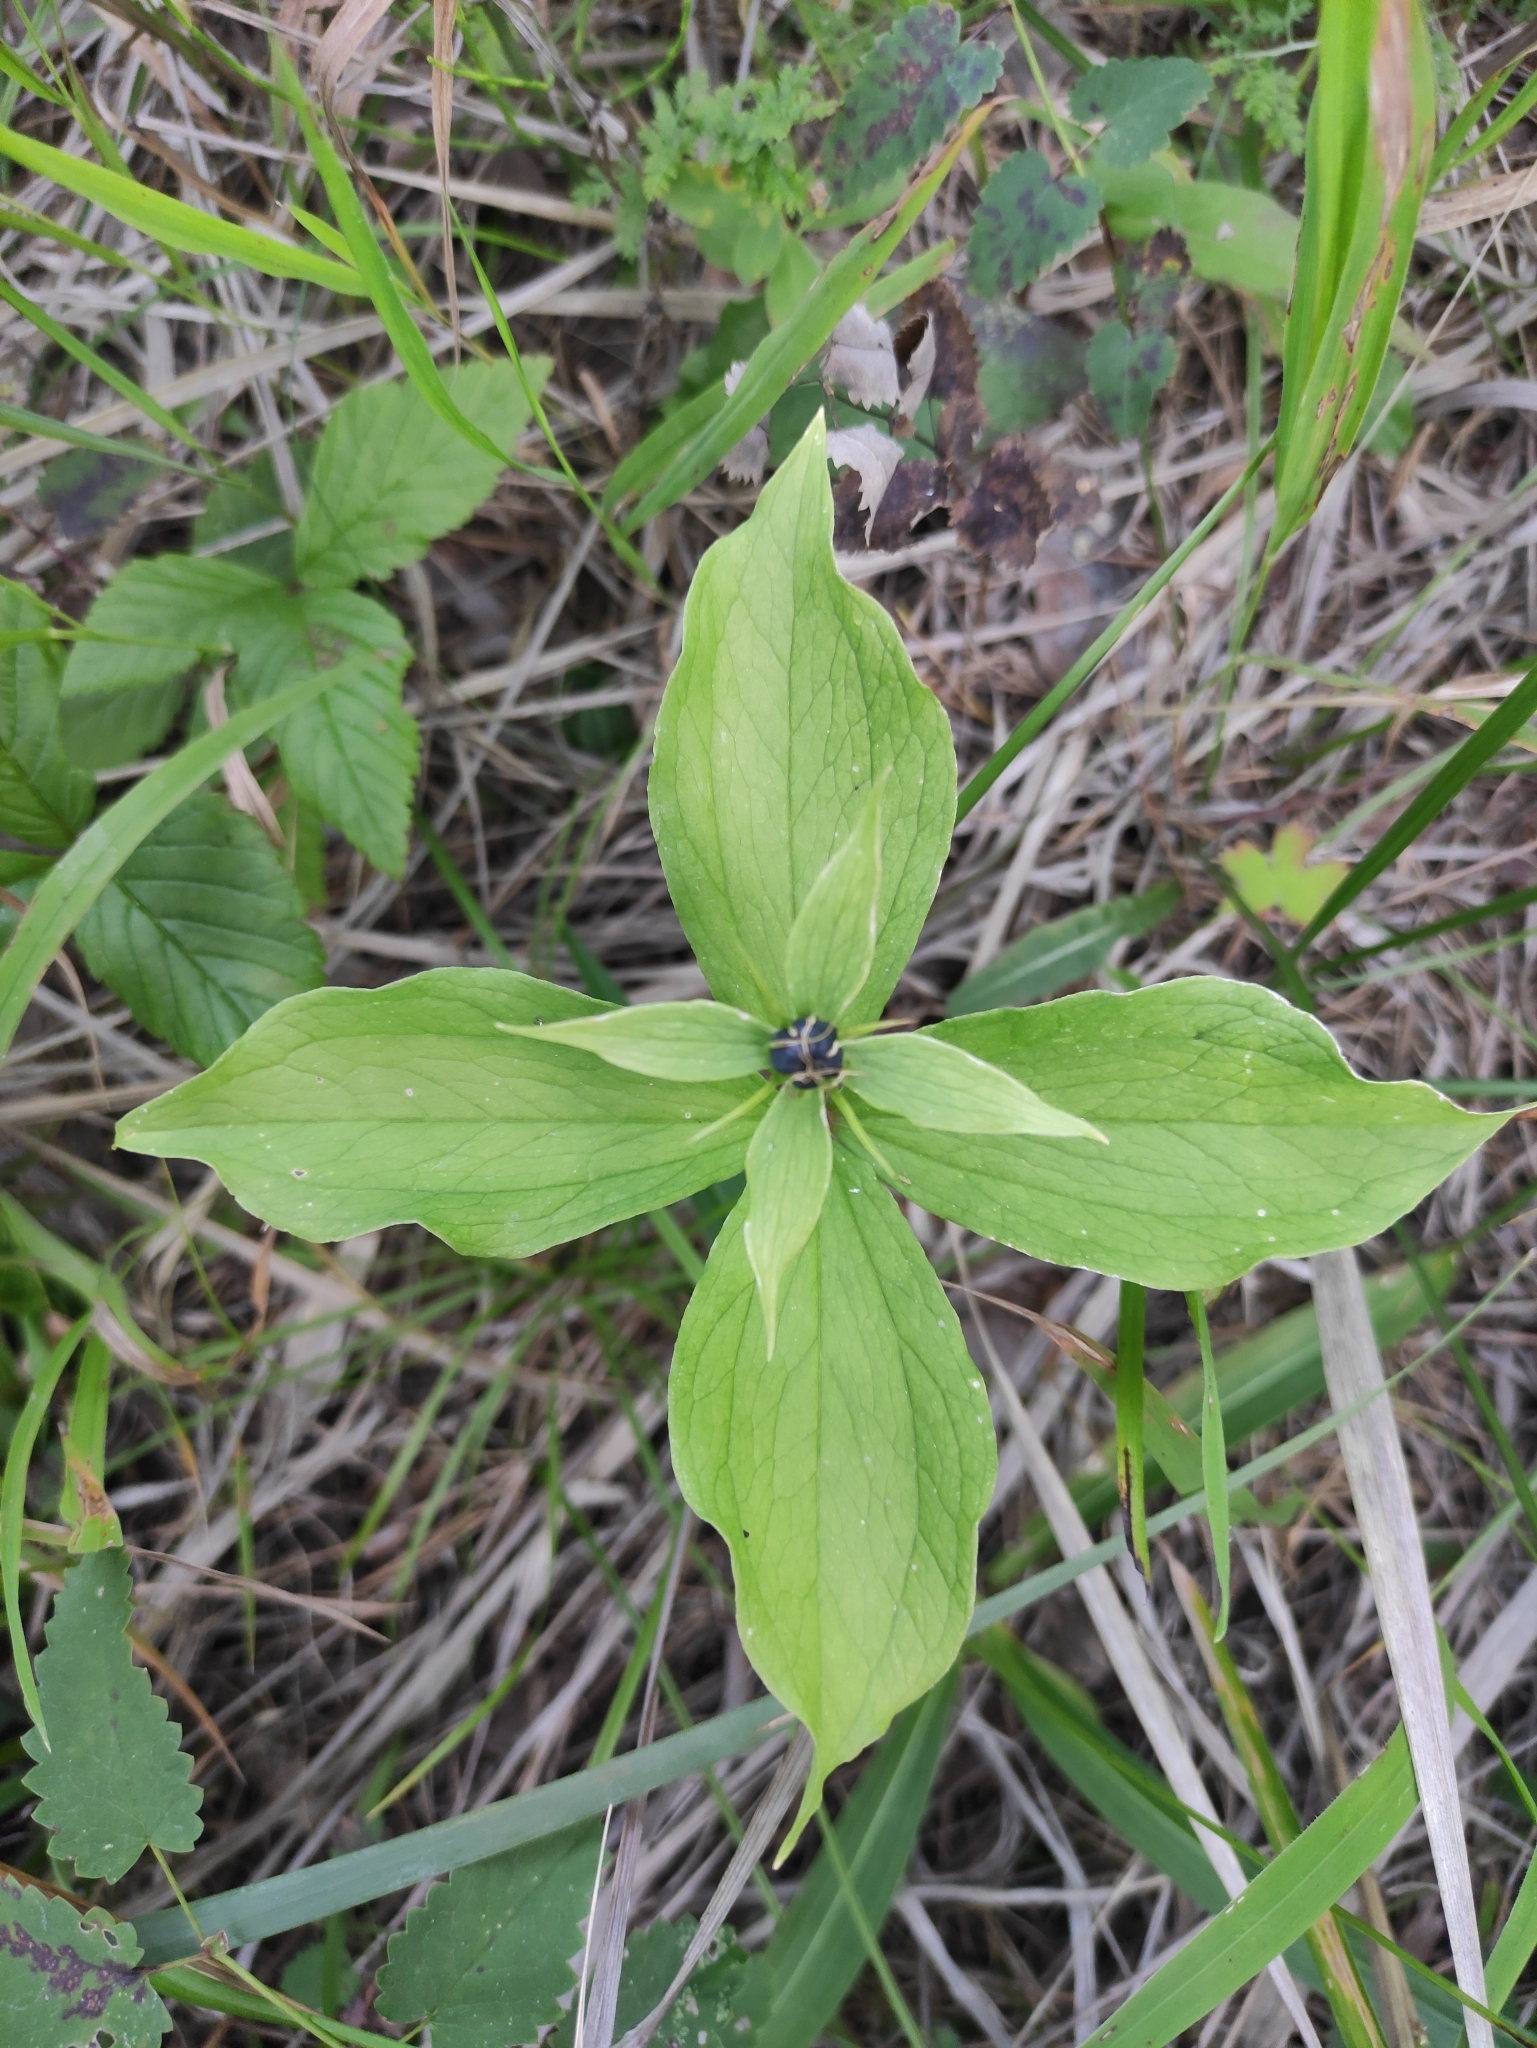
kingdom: Plantae
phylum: Tracheophyta
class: Liliopsida
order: Liliales
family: Melanthiaceae
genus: Paris
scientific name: Paris quadrifolia
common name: Herb-paris
